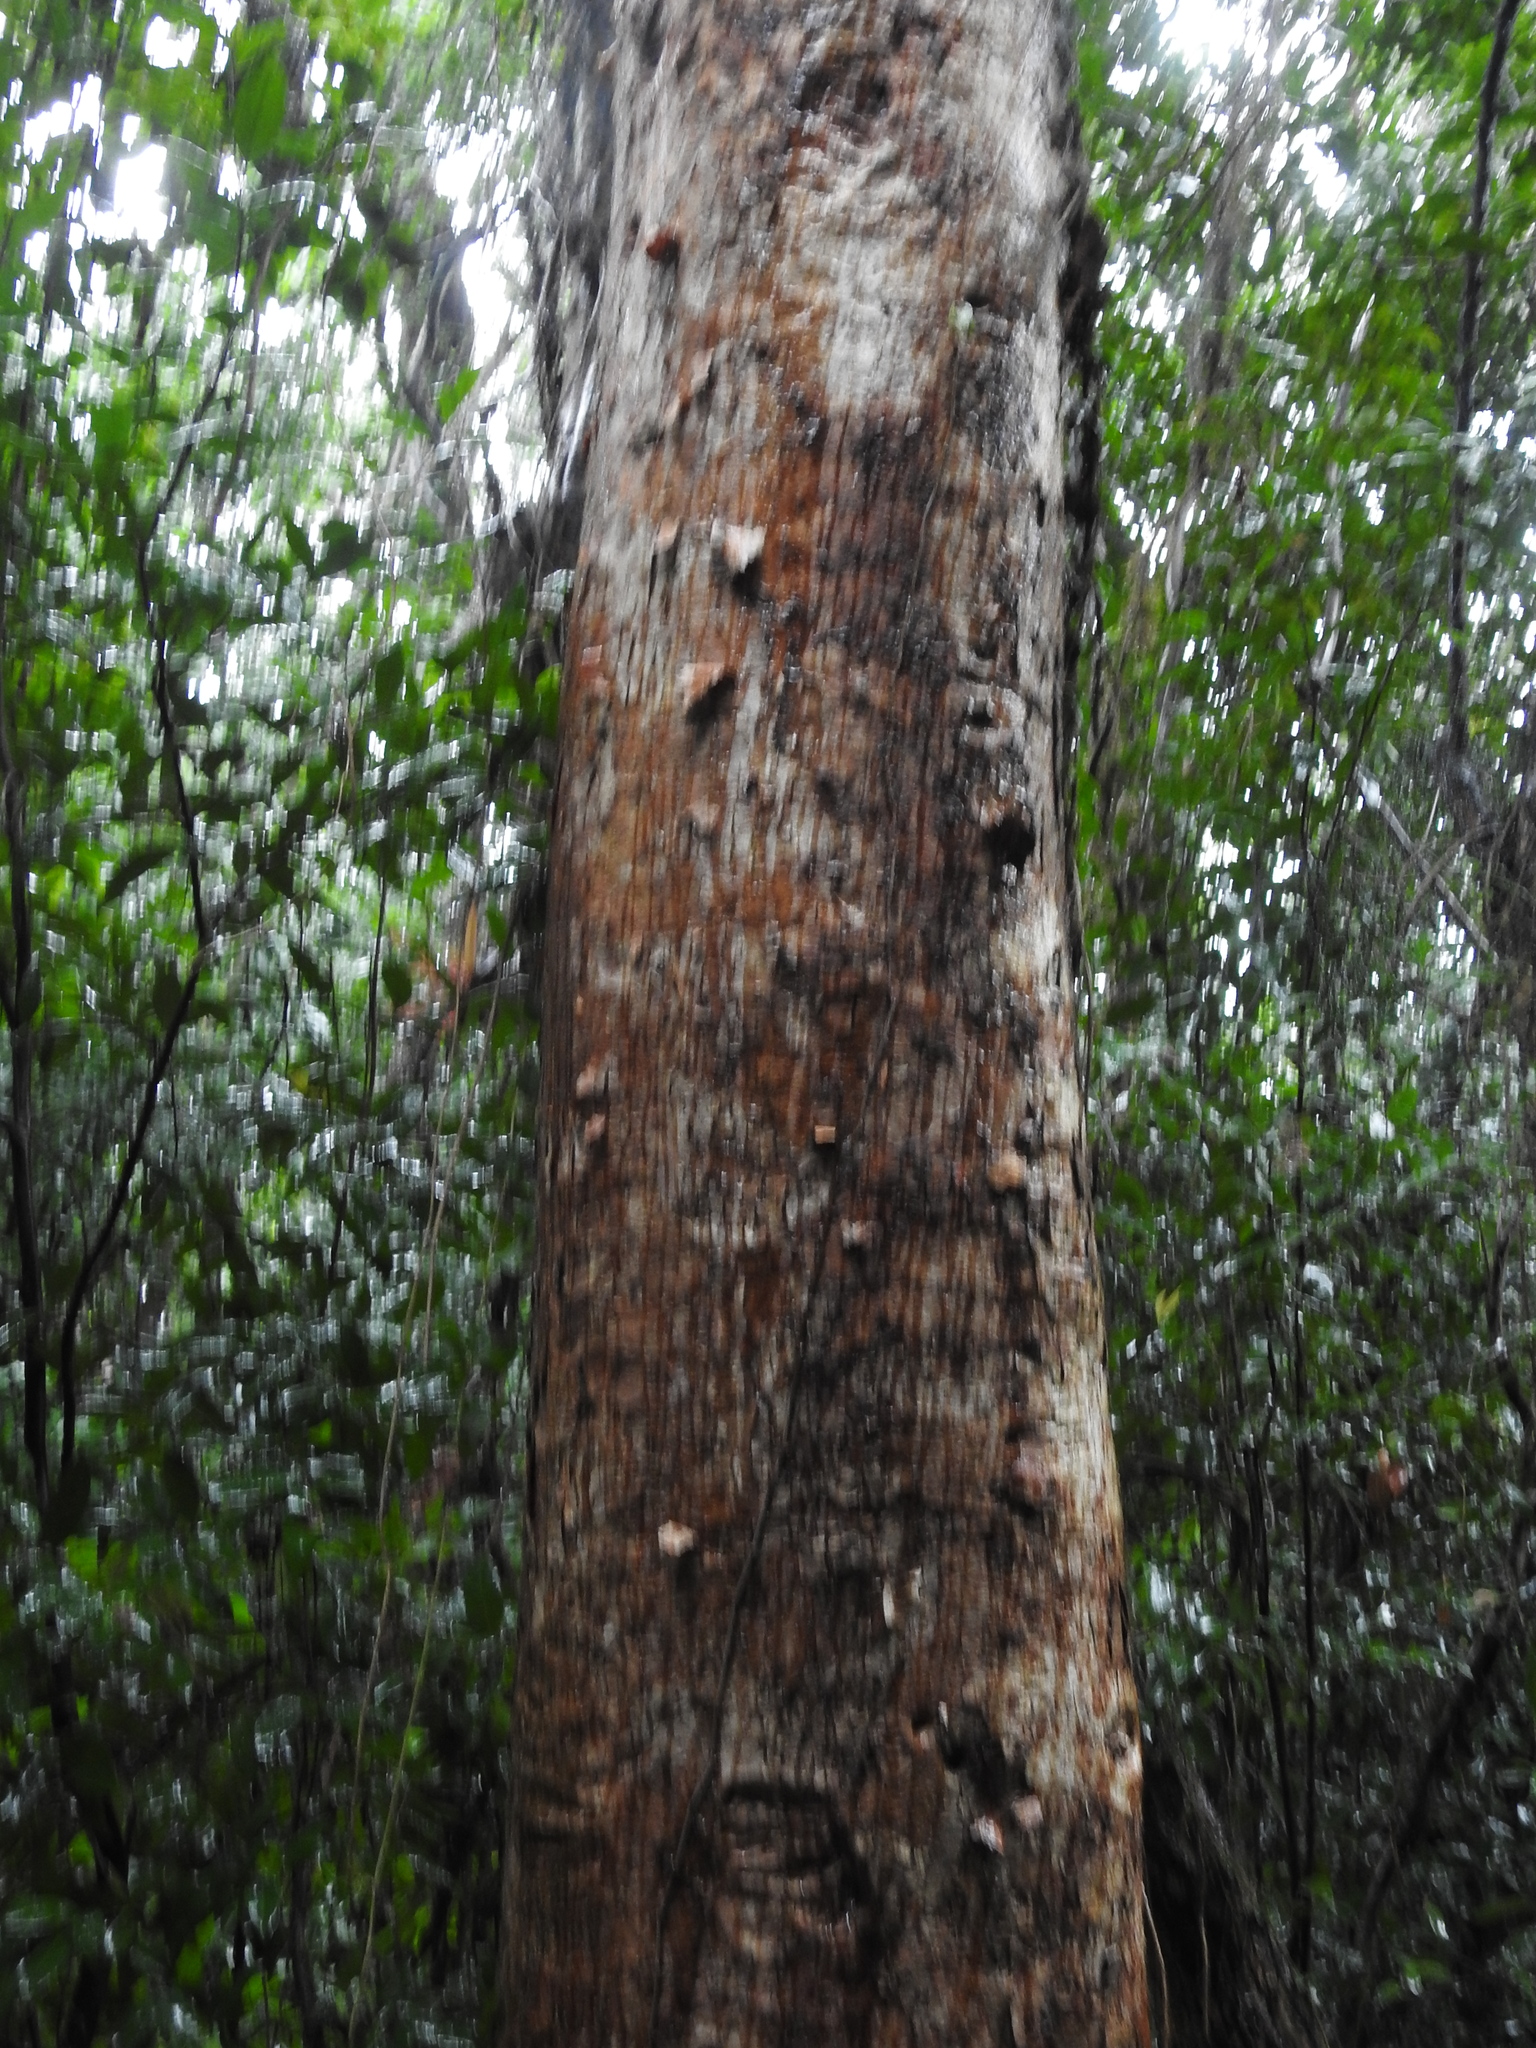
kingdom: Plantae
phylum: Tracheophyta
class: Magnoliopsida
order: Sapindales
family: Burseraceae
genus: Bursera
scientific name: Bursera simaruba
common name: Turpentine tree
